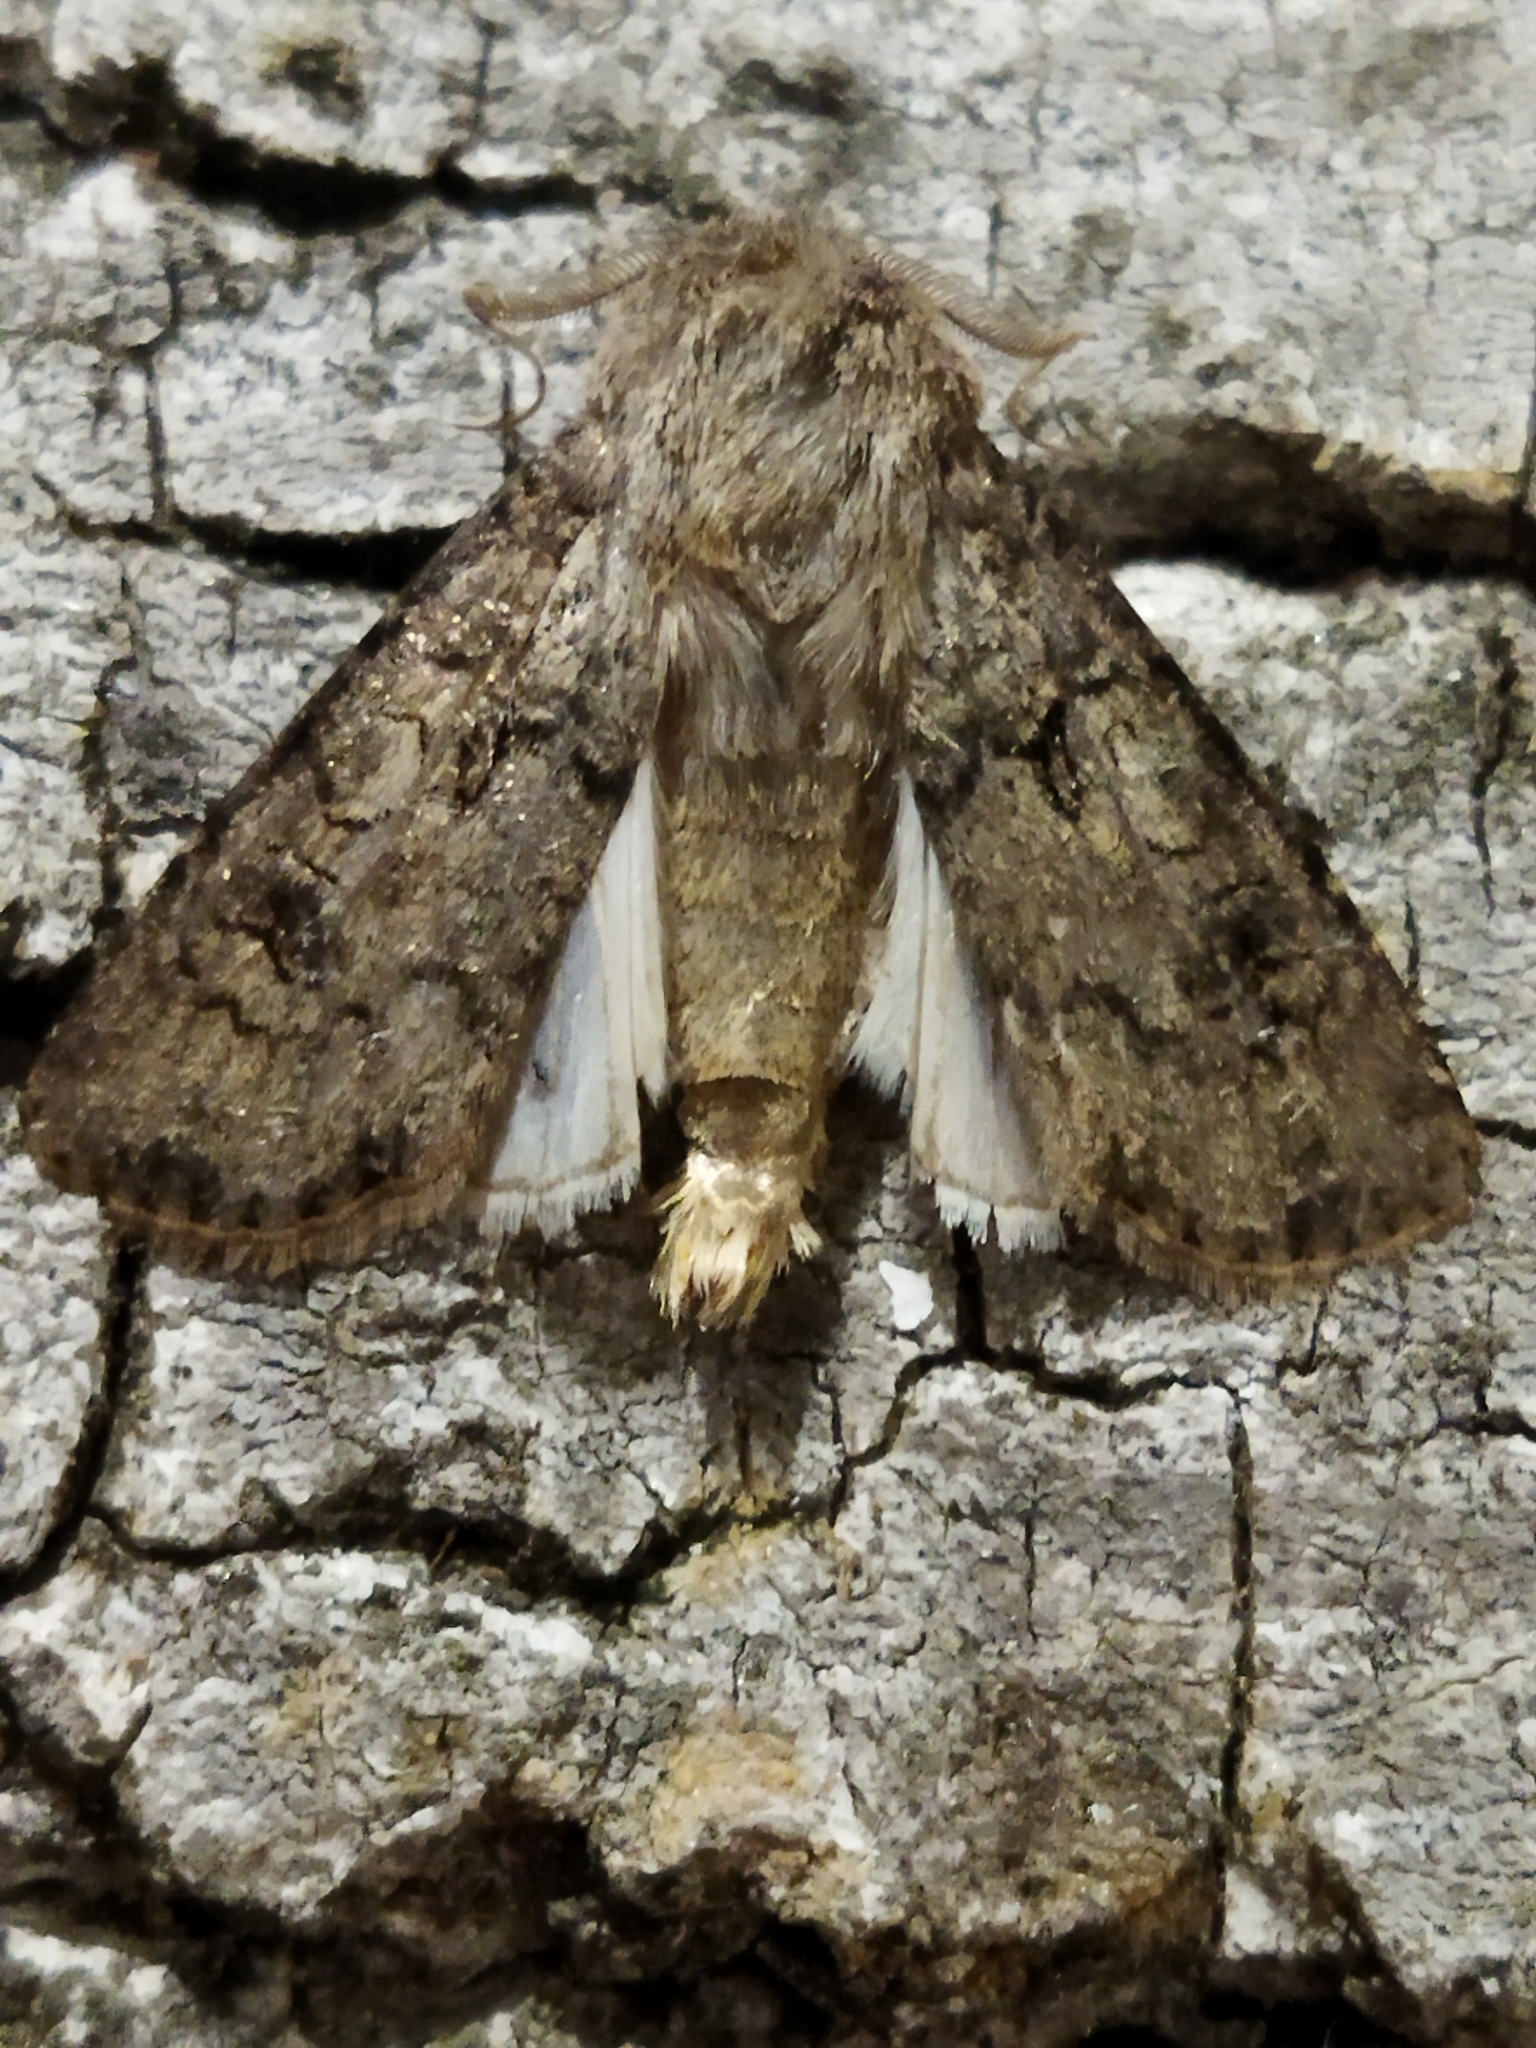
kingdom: Animalia
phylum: Arthropoda
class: Insecta
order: Lepidoptera
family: Noctuidae
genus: Agrotis
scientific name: Agrotis segetum
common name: Turnip moth
